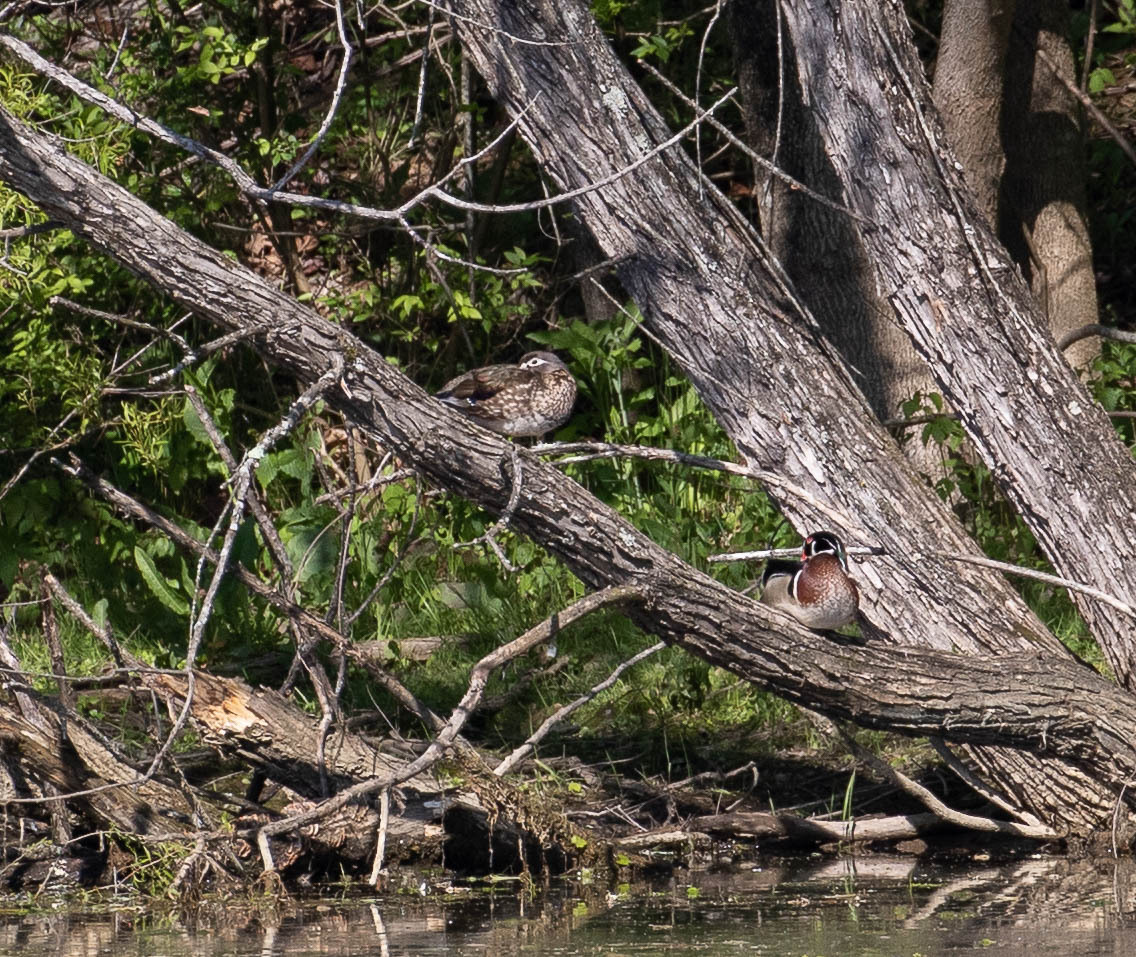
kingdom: Animalia
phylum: Chordata
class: Aves
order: Anseriformes
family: Anatidae
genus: Aix
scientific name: Aix sponsa
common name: Wood duck
